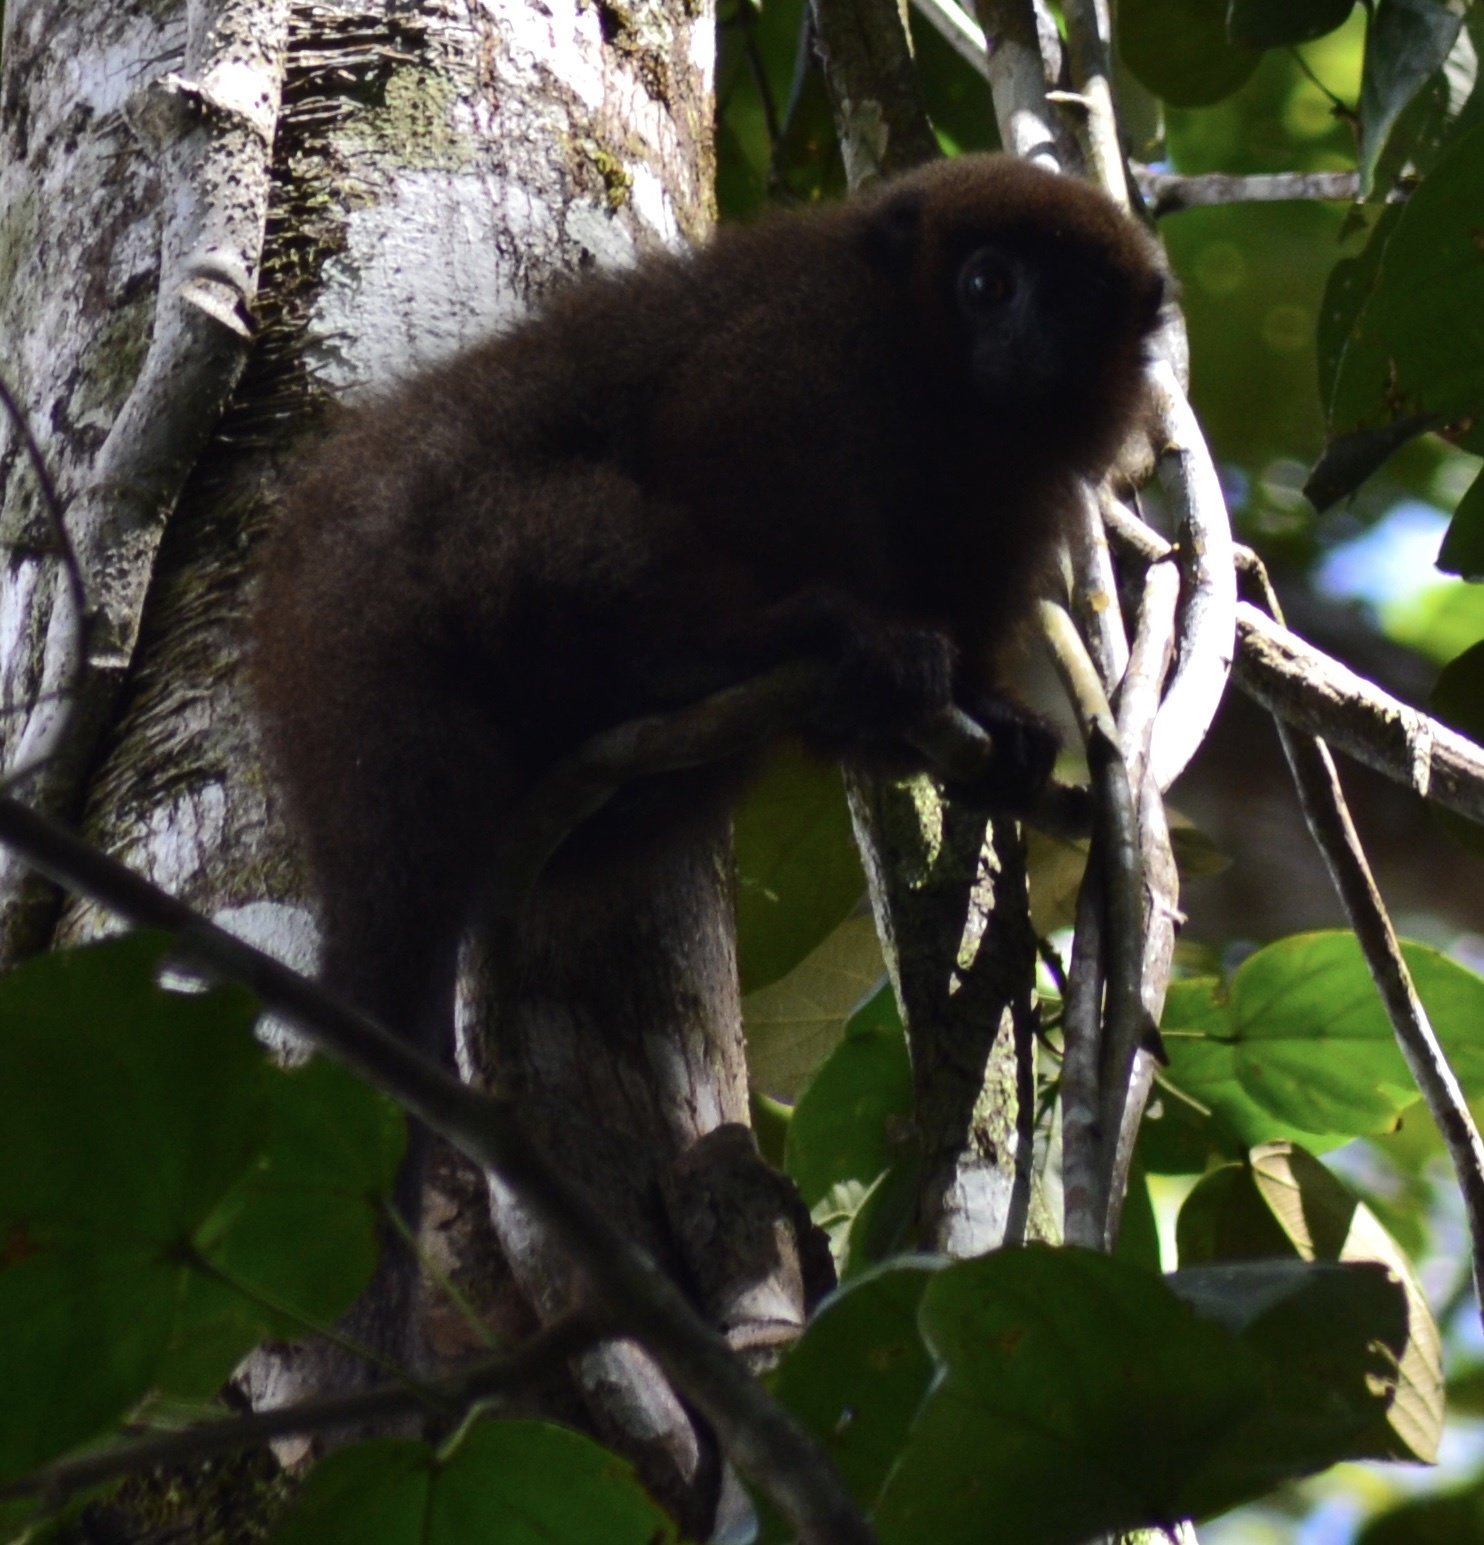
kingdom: Animalia
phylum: Chordata
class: Mammalia
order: Primates
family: Pitheciidae
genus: Plecturocebus
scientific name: Plecturocebus toppini
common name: Toppin's titi
